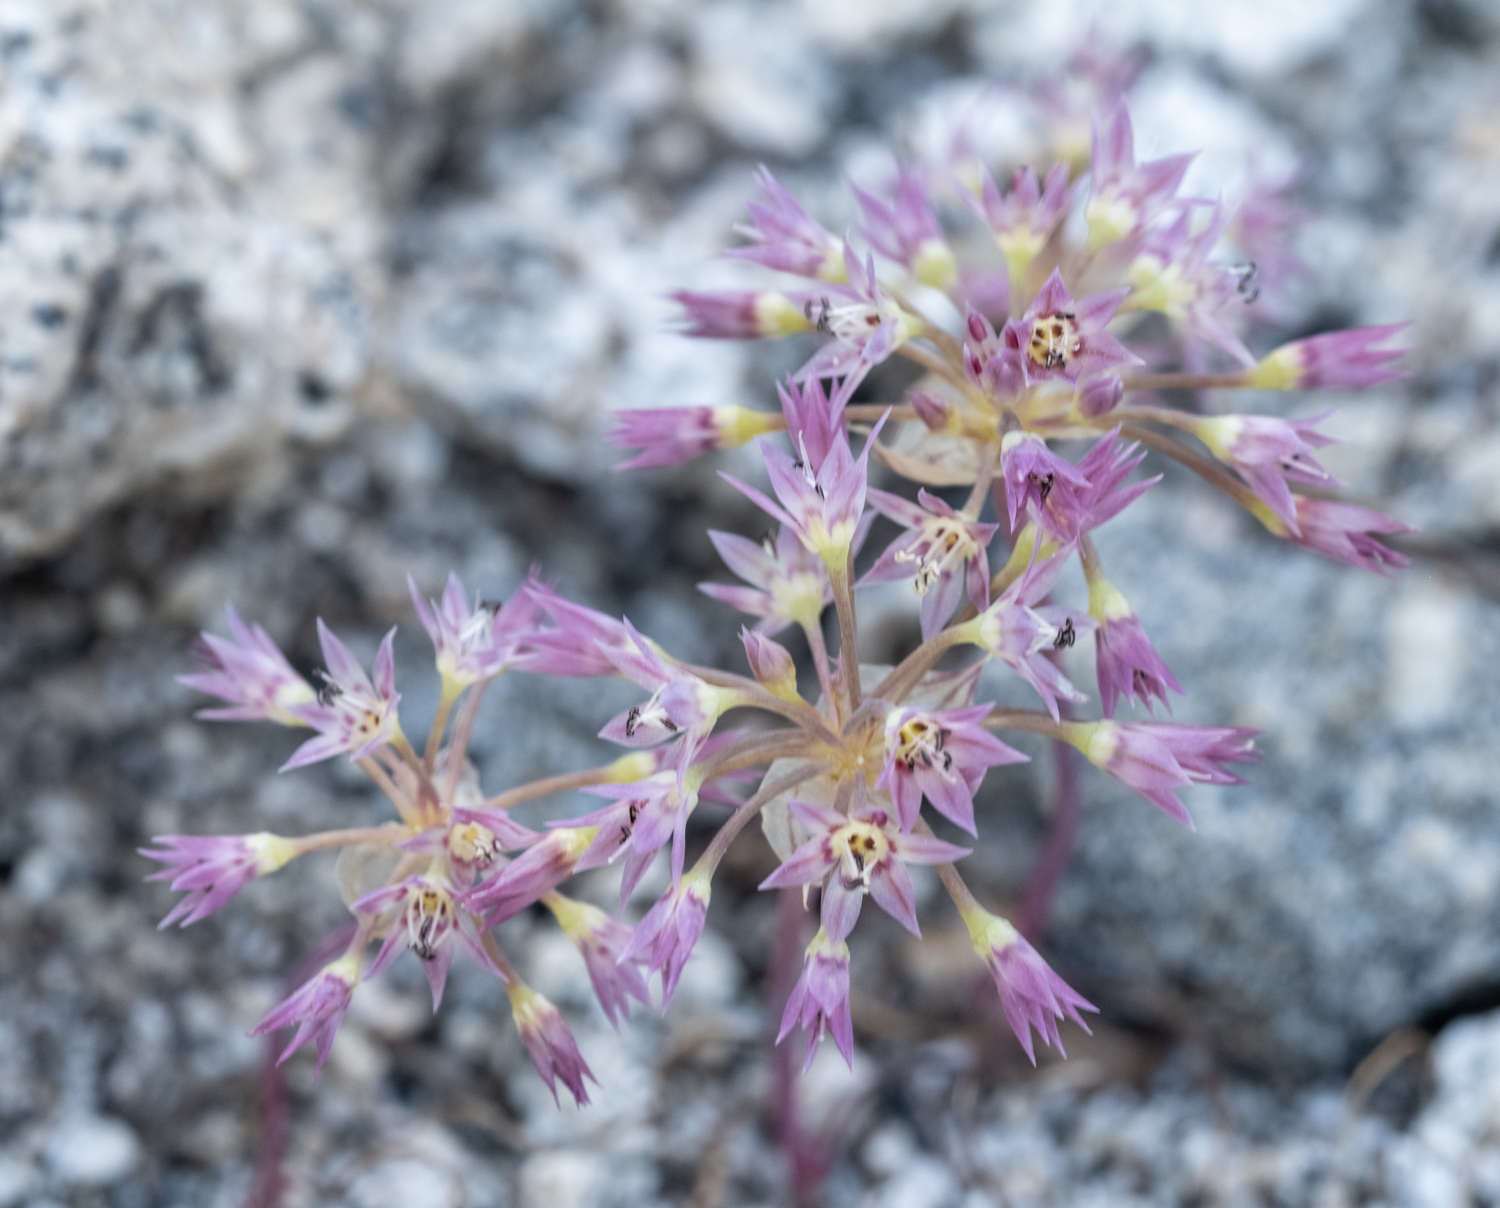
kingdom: Plantae
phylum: Tracheophyta
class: Liliopsida
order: Asparagales
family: Amaryllidaceae
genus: Allium
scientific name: Allium campanulatum
